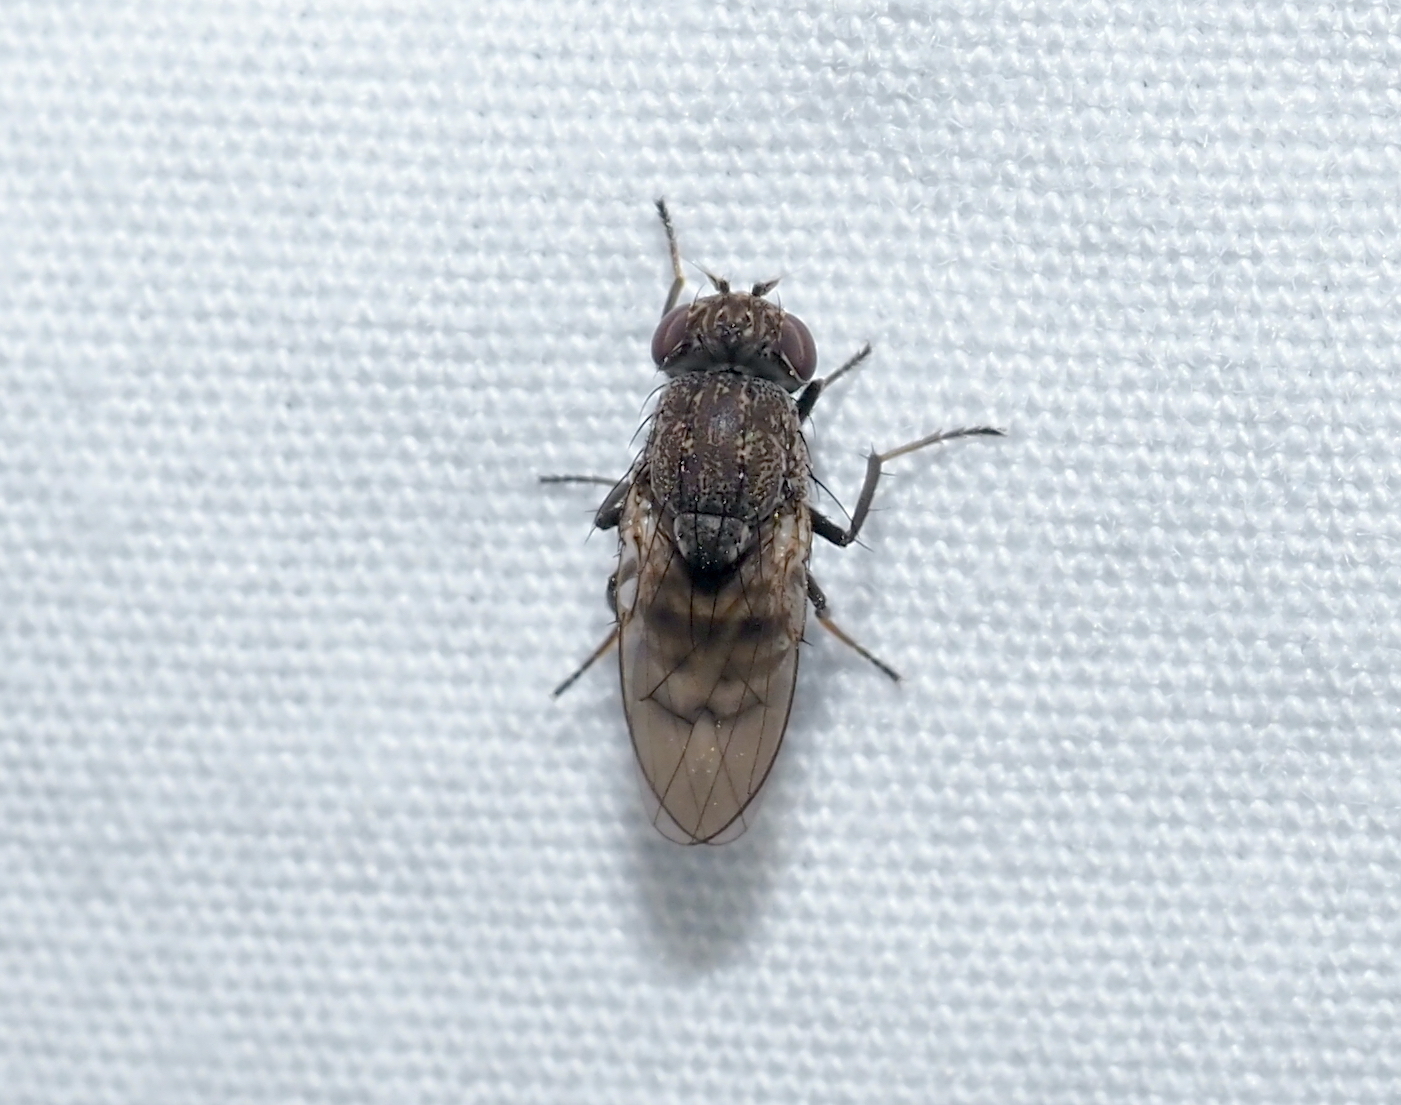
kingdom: Animalia
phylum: Arthropoda
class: Insecta
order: Diptera
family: Ephydridae
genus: Paralimna
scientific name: Paralimna punctipennis
